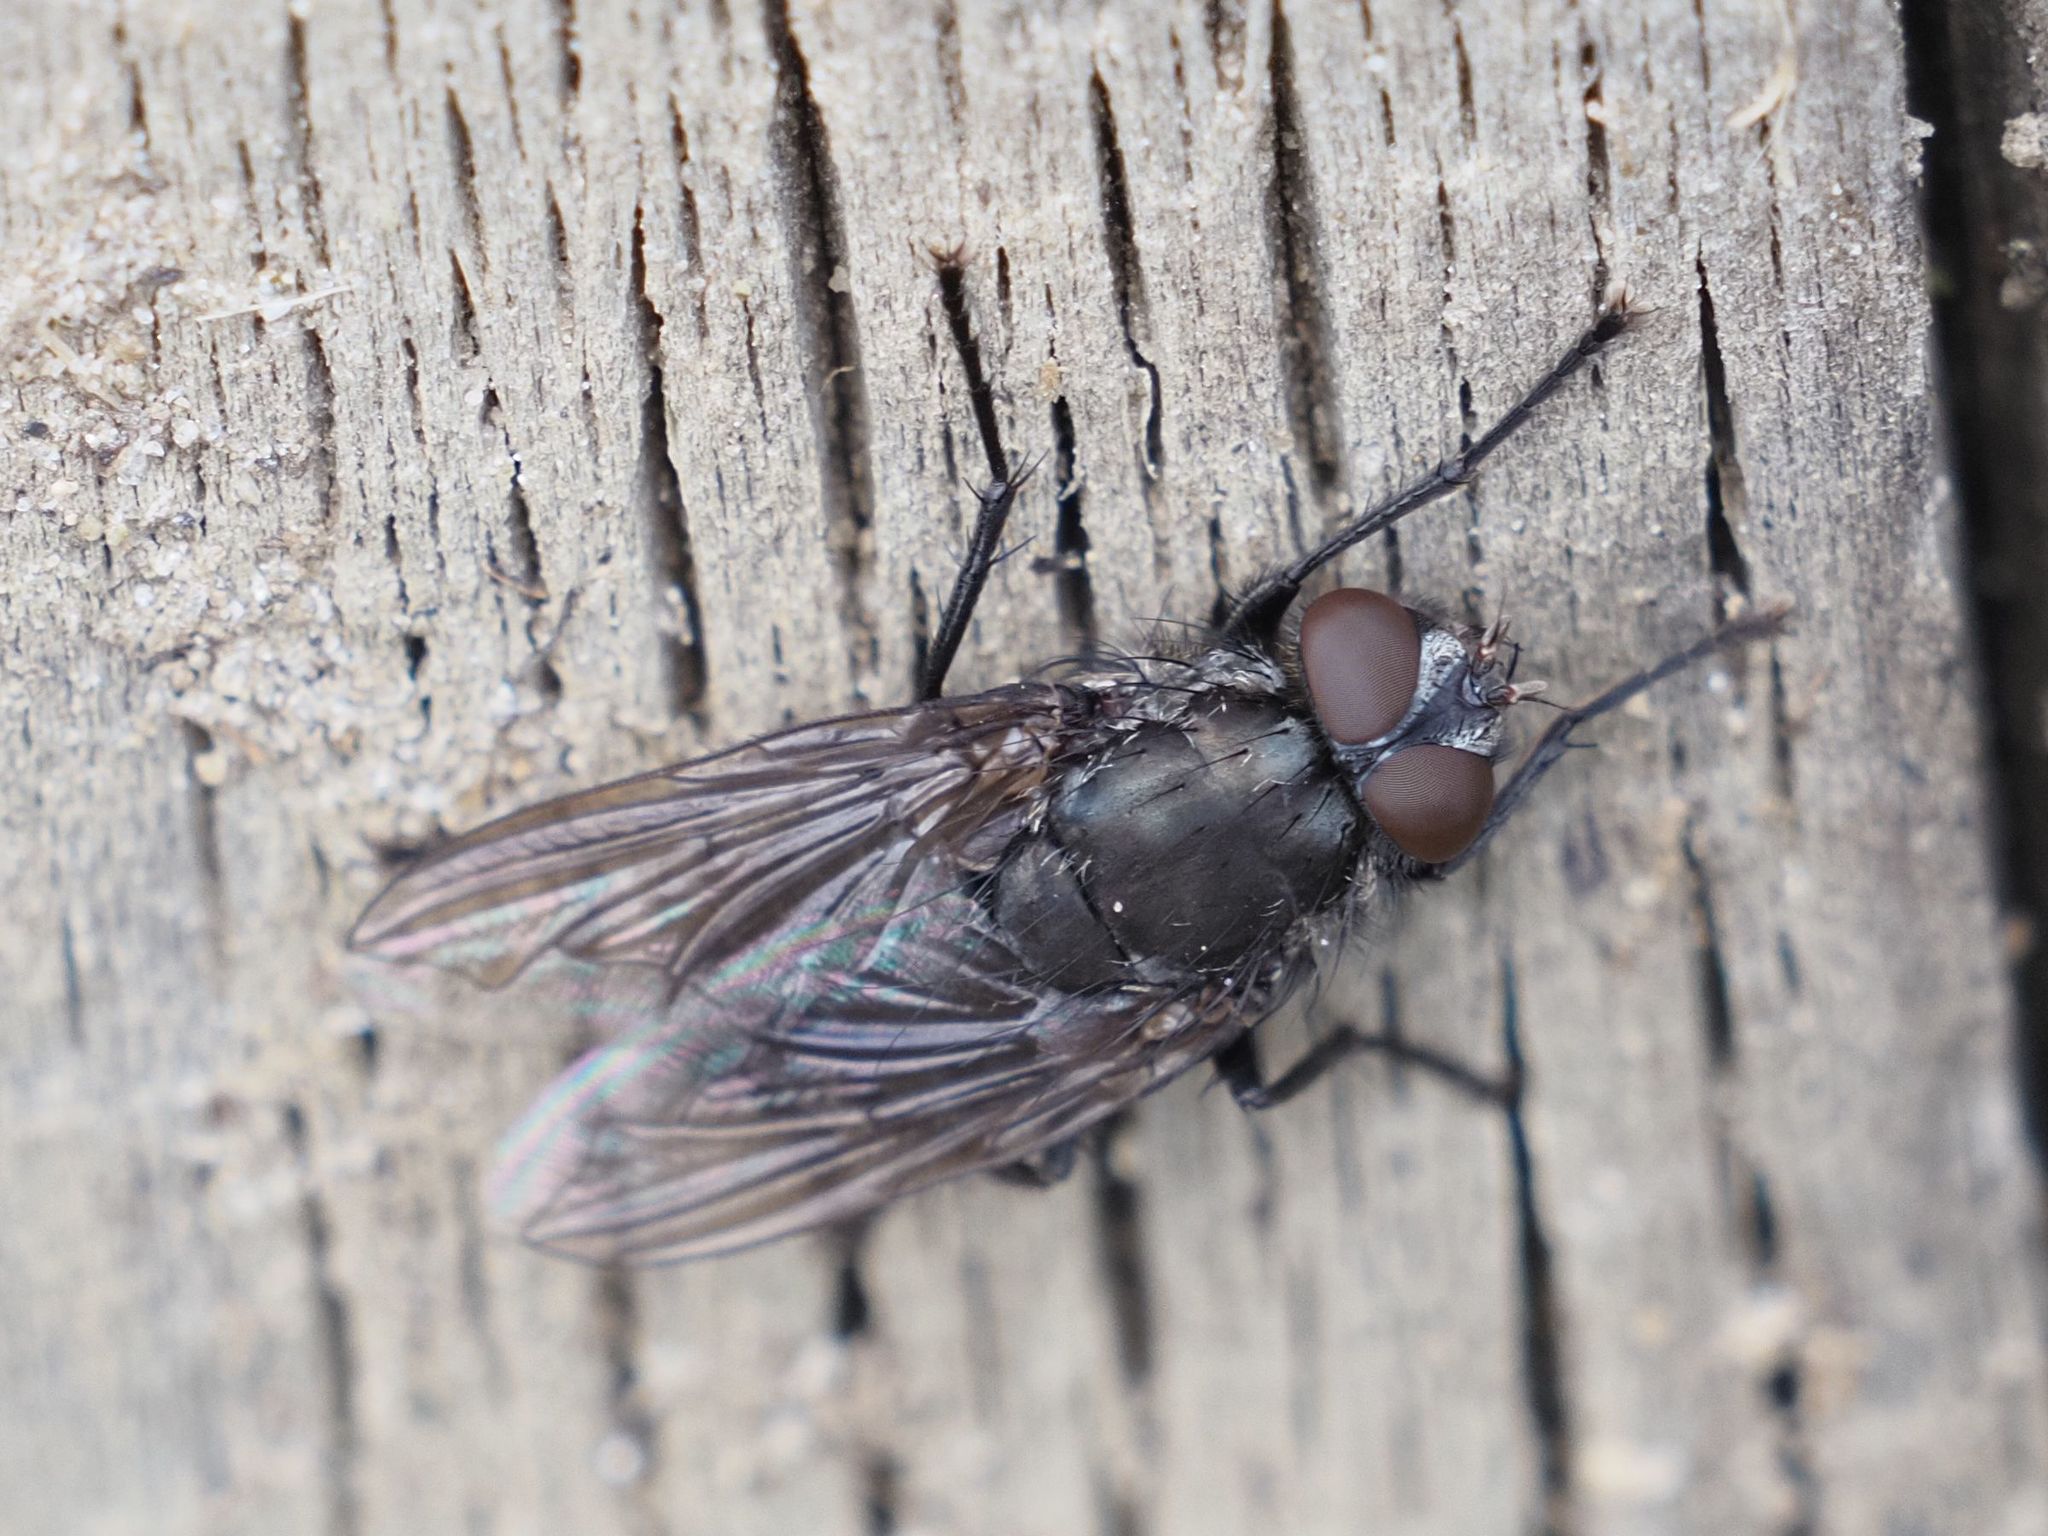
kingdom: Animalia
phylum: Arthropoda
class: Insecta
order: Diptera
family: Polleniidae
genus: Pollenia
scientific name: Pollenia vagabunda
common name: Vagabund cluster fly
